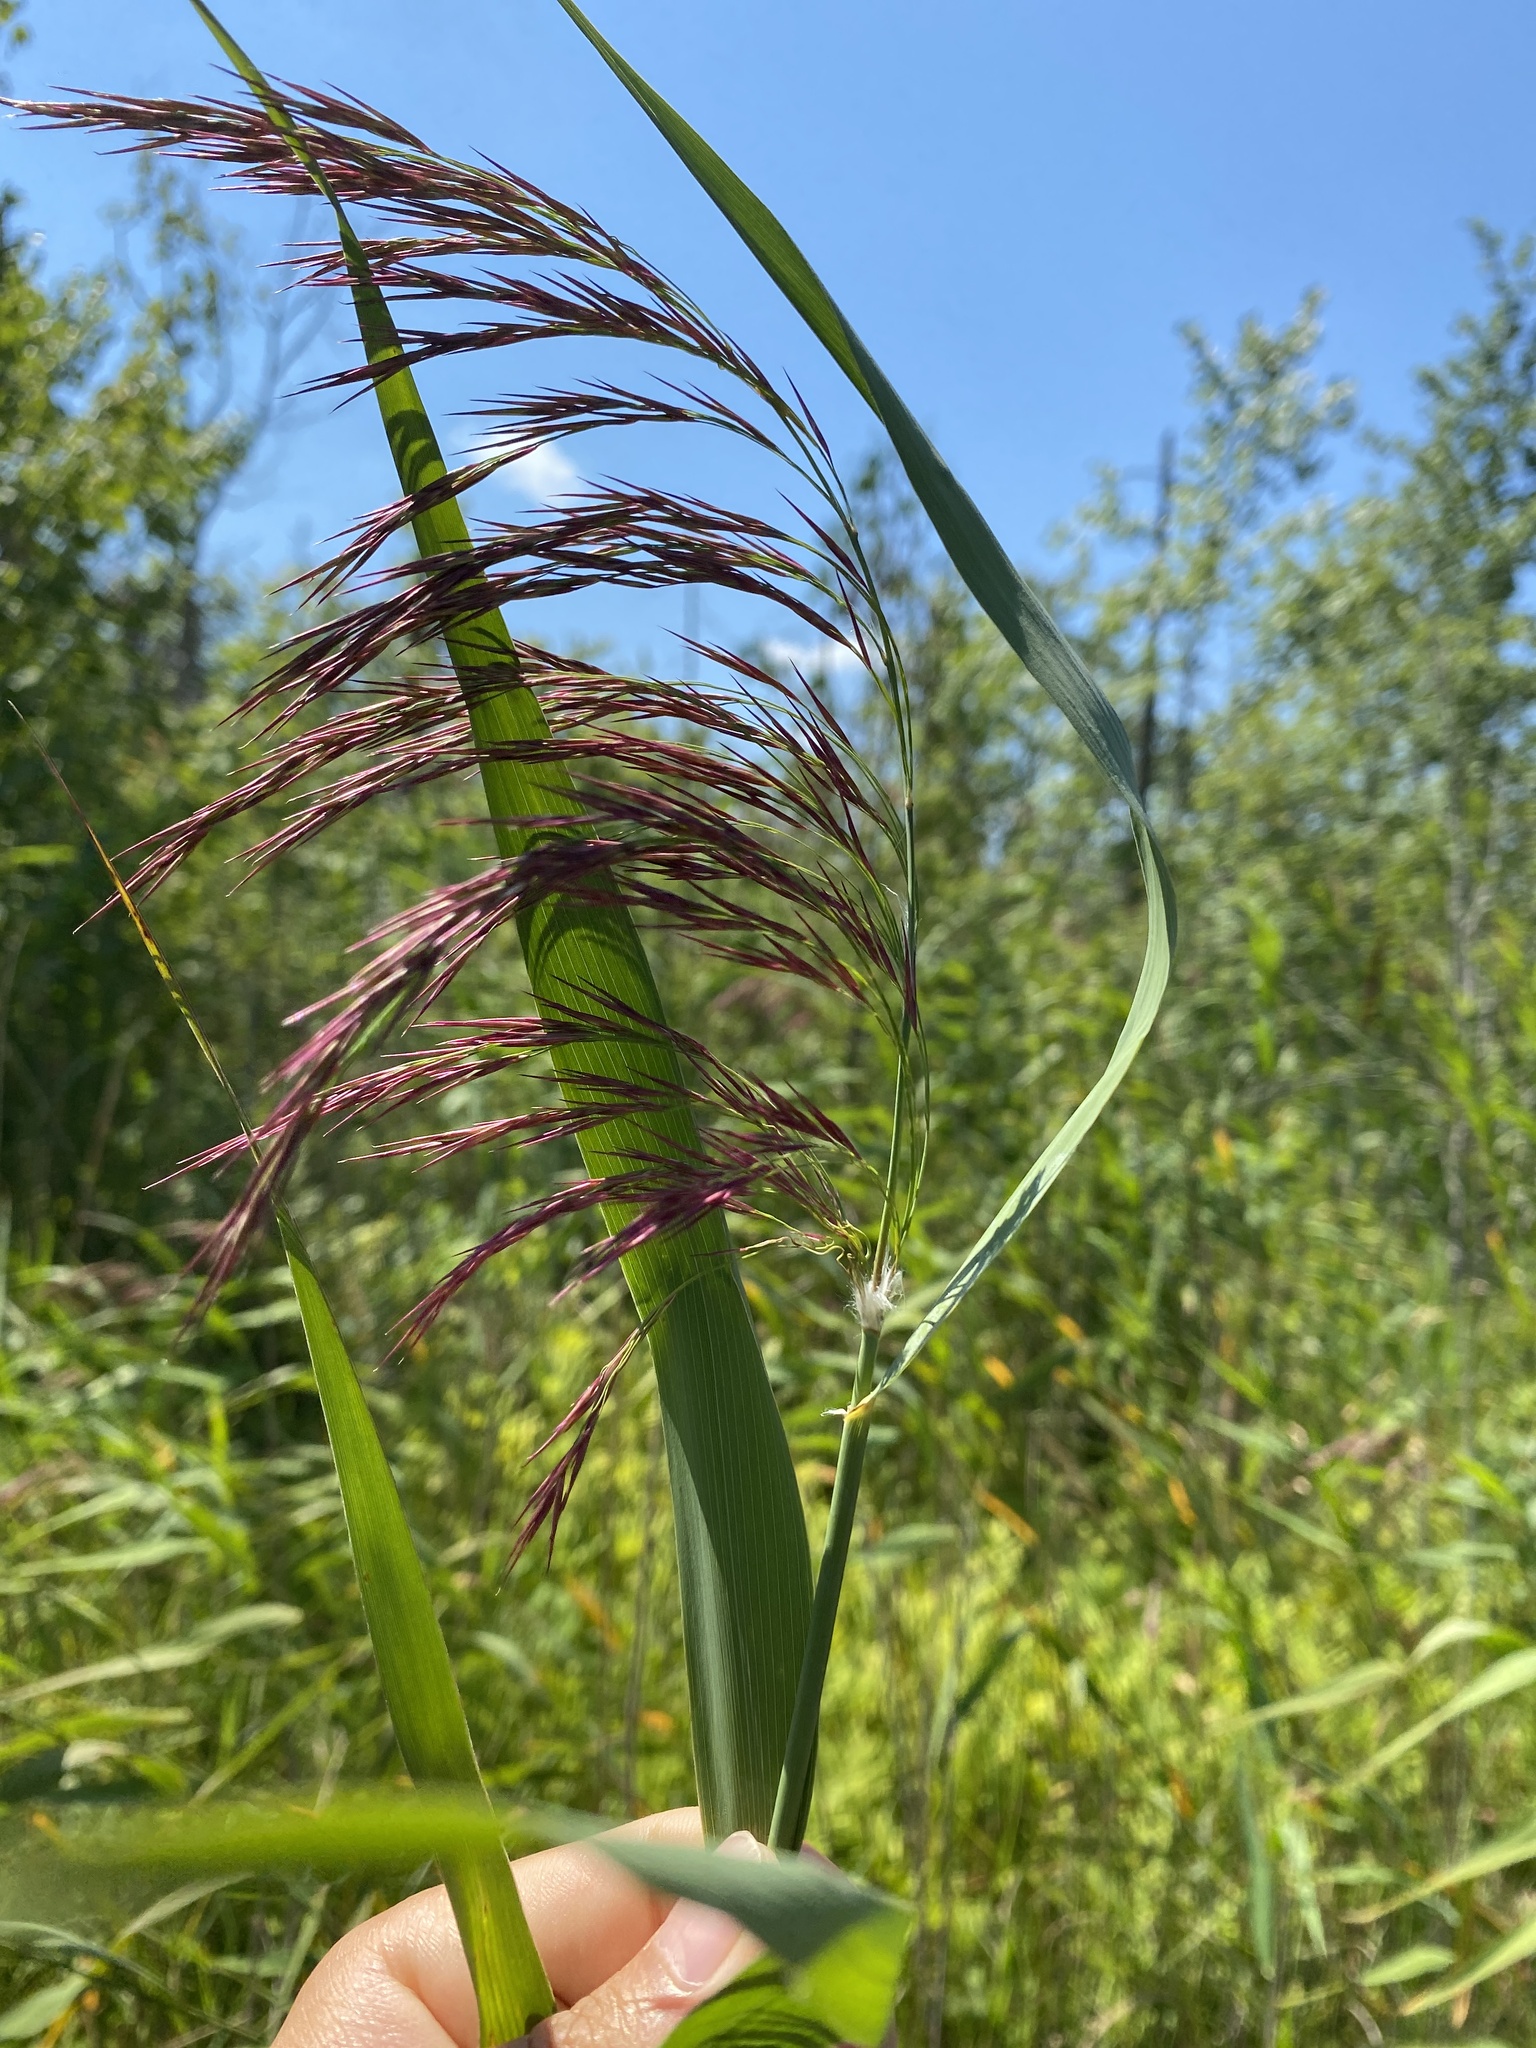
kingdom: Plantae
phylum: Tracheophyta
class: Liliopsida
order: Poales
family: Poaceae
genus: Phragmites
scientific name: Phragmites australis
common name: Common reed
